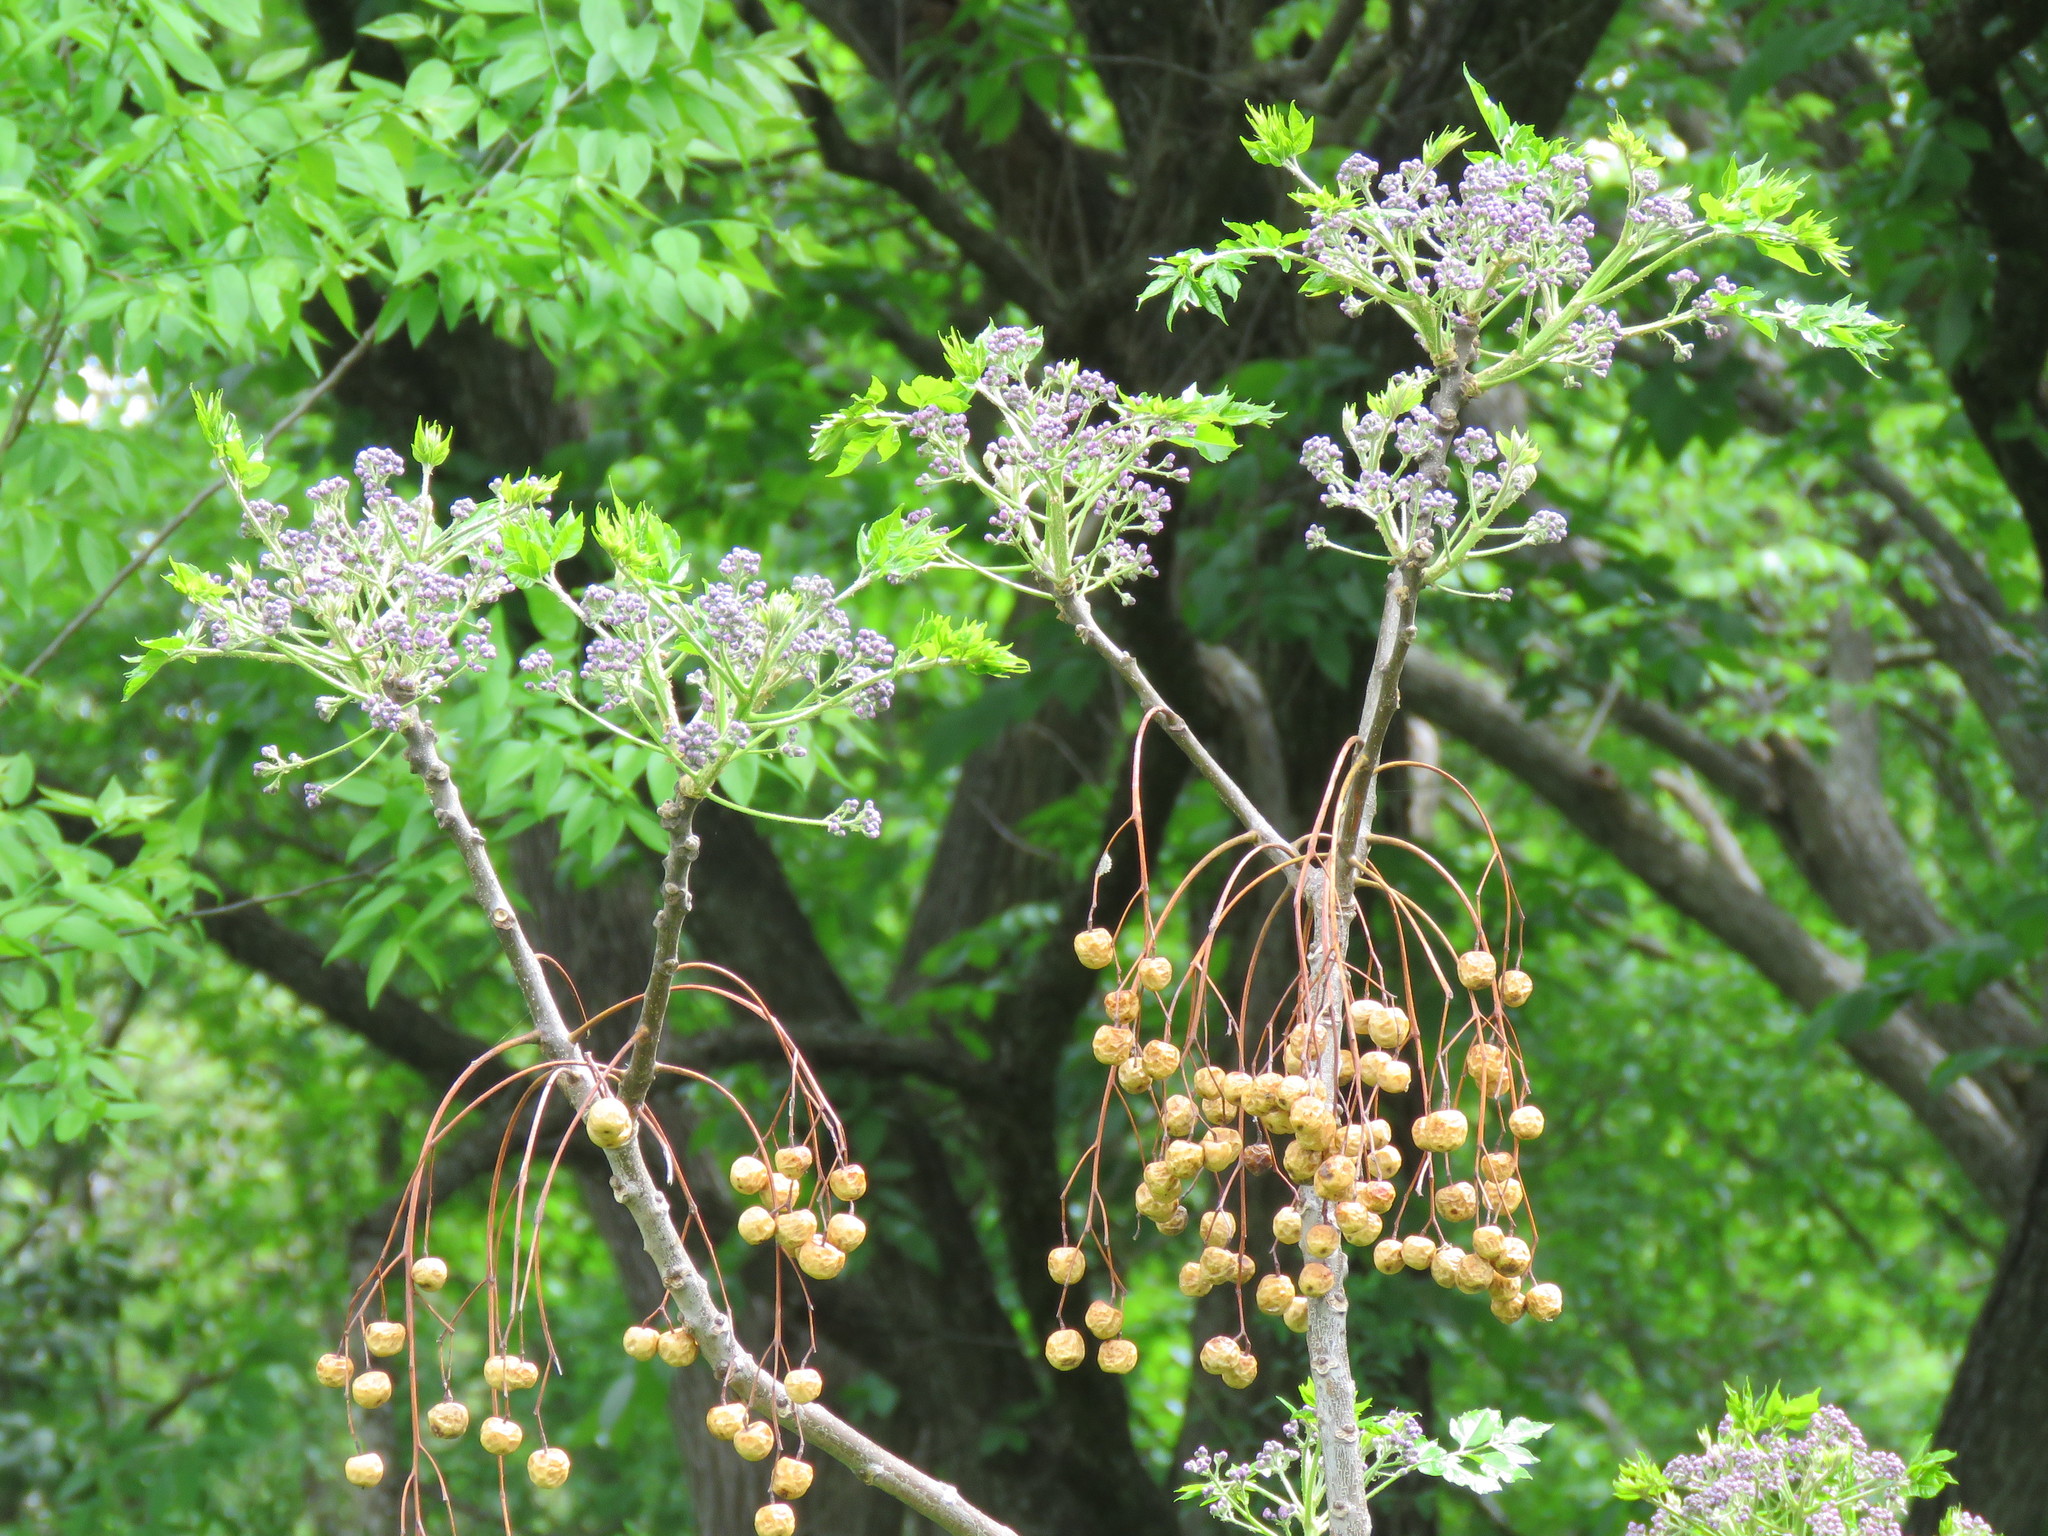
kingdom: Plantae
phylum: Tracheophyta
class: Magnoliopsida
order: Sapindales
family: Meliaceae
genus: Melia
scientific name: Melia azedarach
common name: Chinaberrytree
